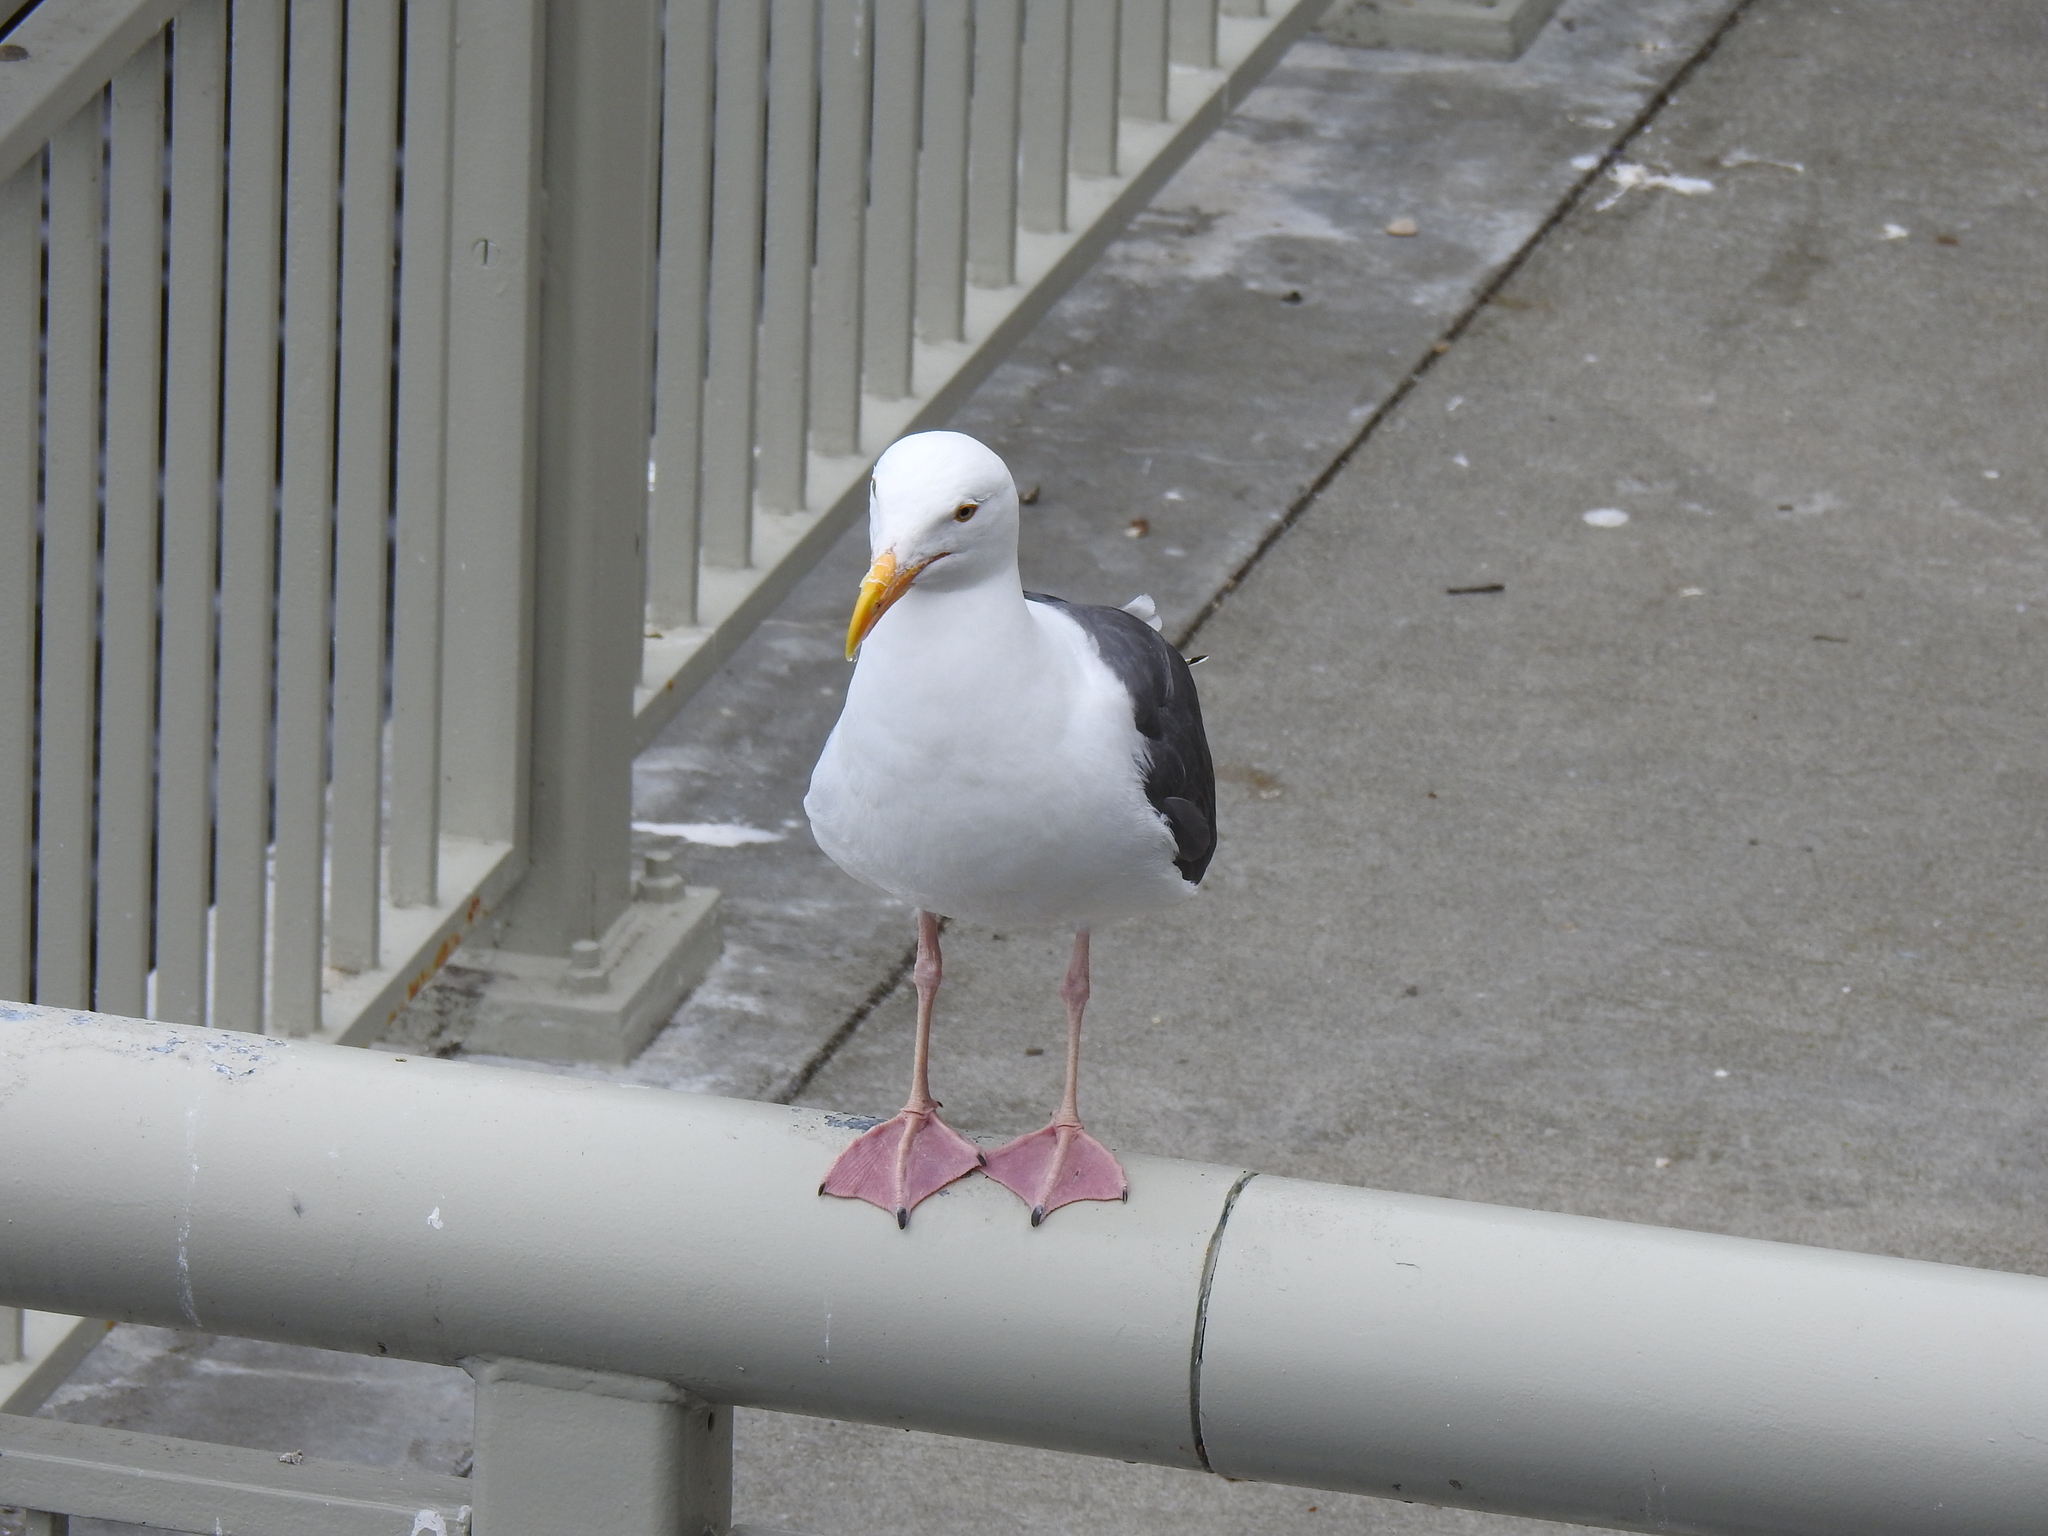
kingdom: Animalia
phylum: Chordata
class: Aves
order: Charadriiformes
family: Laridae
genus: Larus
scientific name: Larus occidentalis
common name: Western gull
